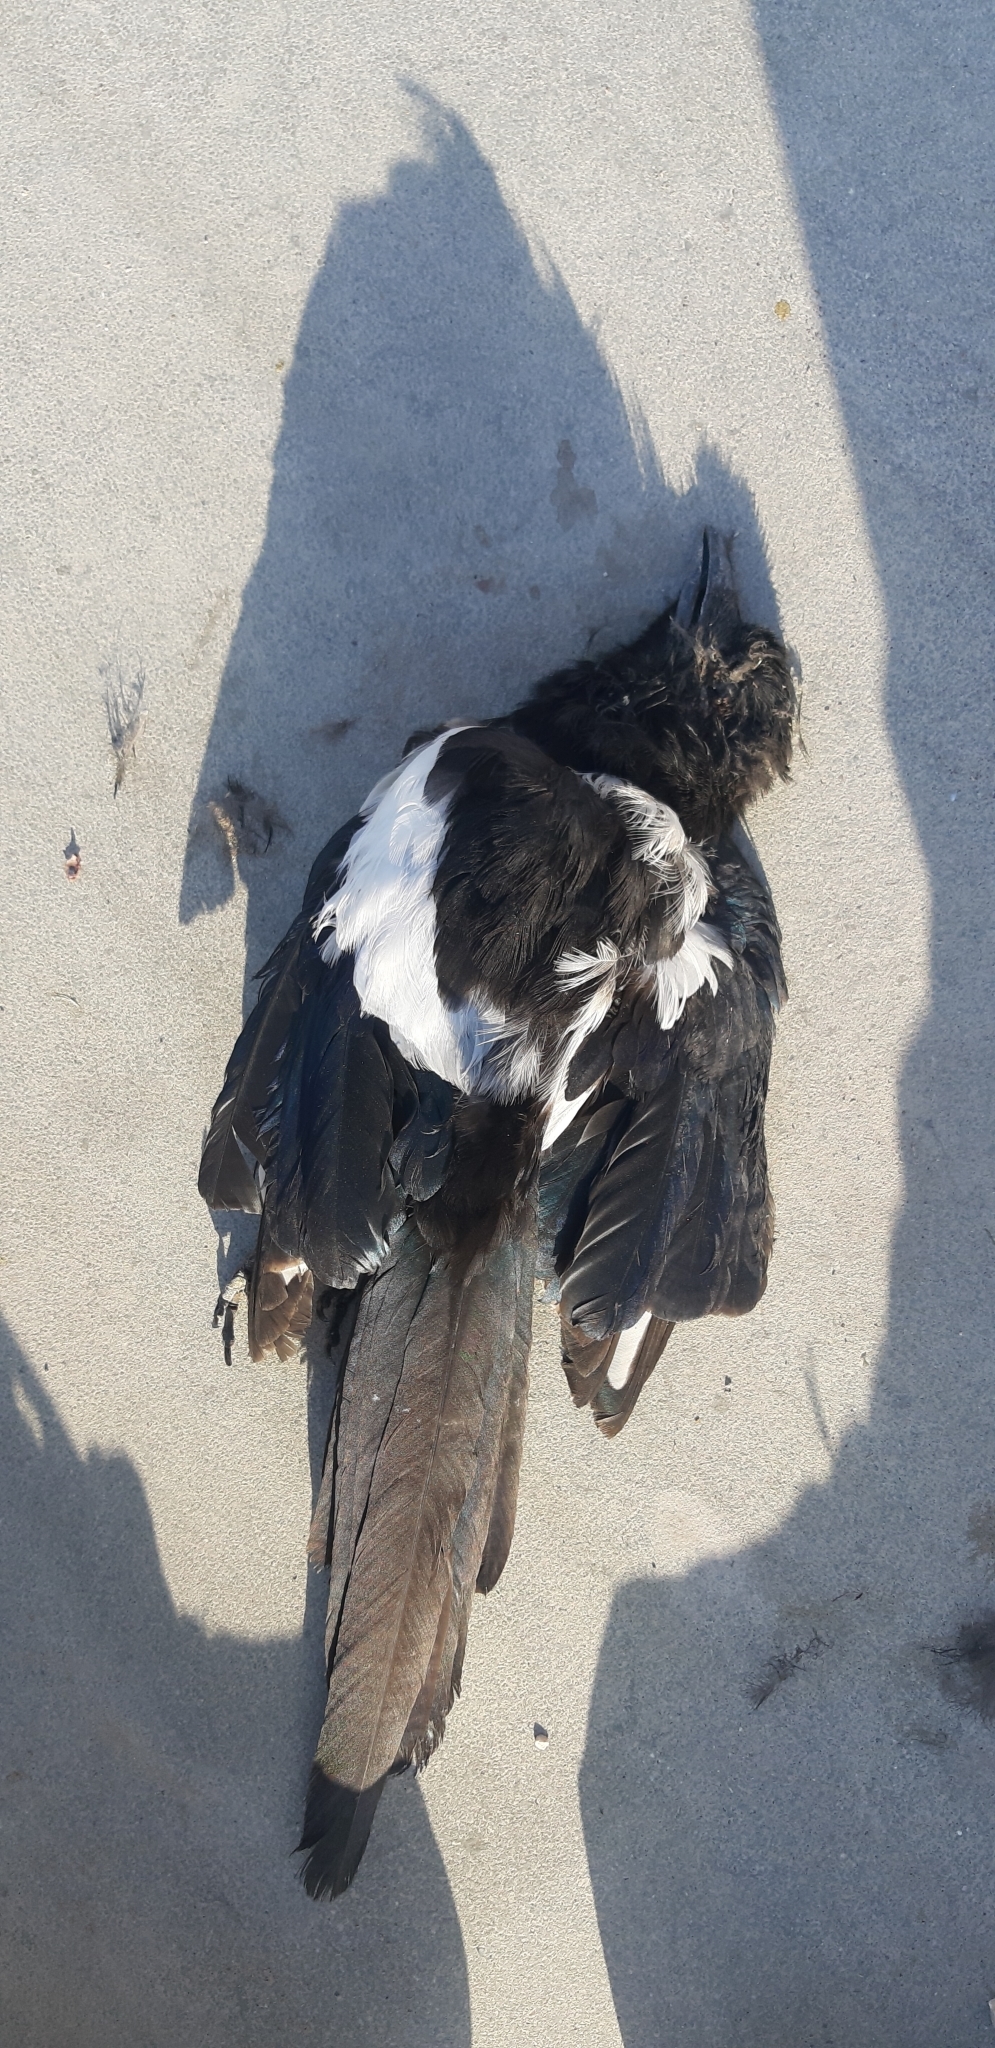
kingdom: Animalia
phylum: Chordata
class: Aves
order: Passeriformes
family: Corvidae
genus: Pica
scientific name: Pica pica
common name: Eurasian magpie
